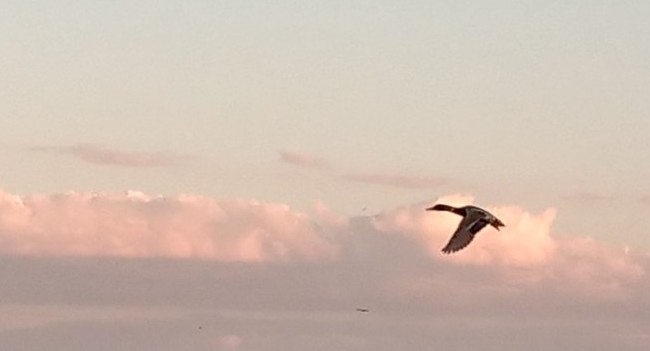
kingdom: Animalia
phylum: Chordata
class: Aves
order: Anseriformes
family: Anatidae
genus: Anas
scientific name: Anas platyrhynchos
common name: Mallard
